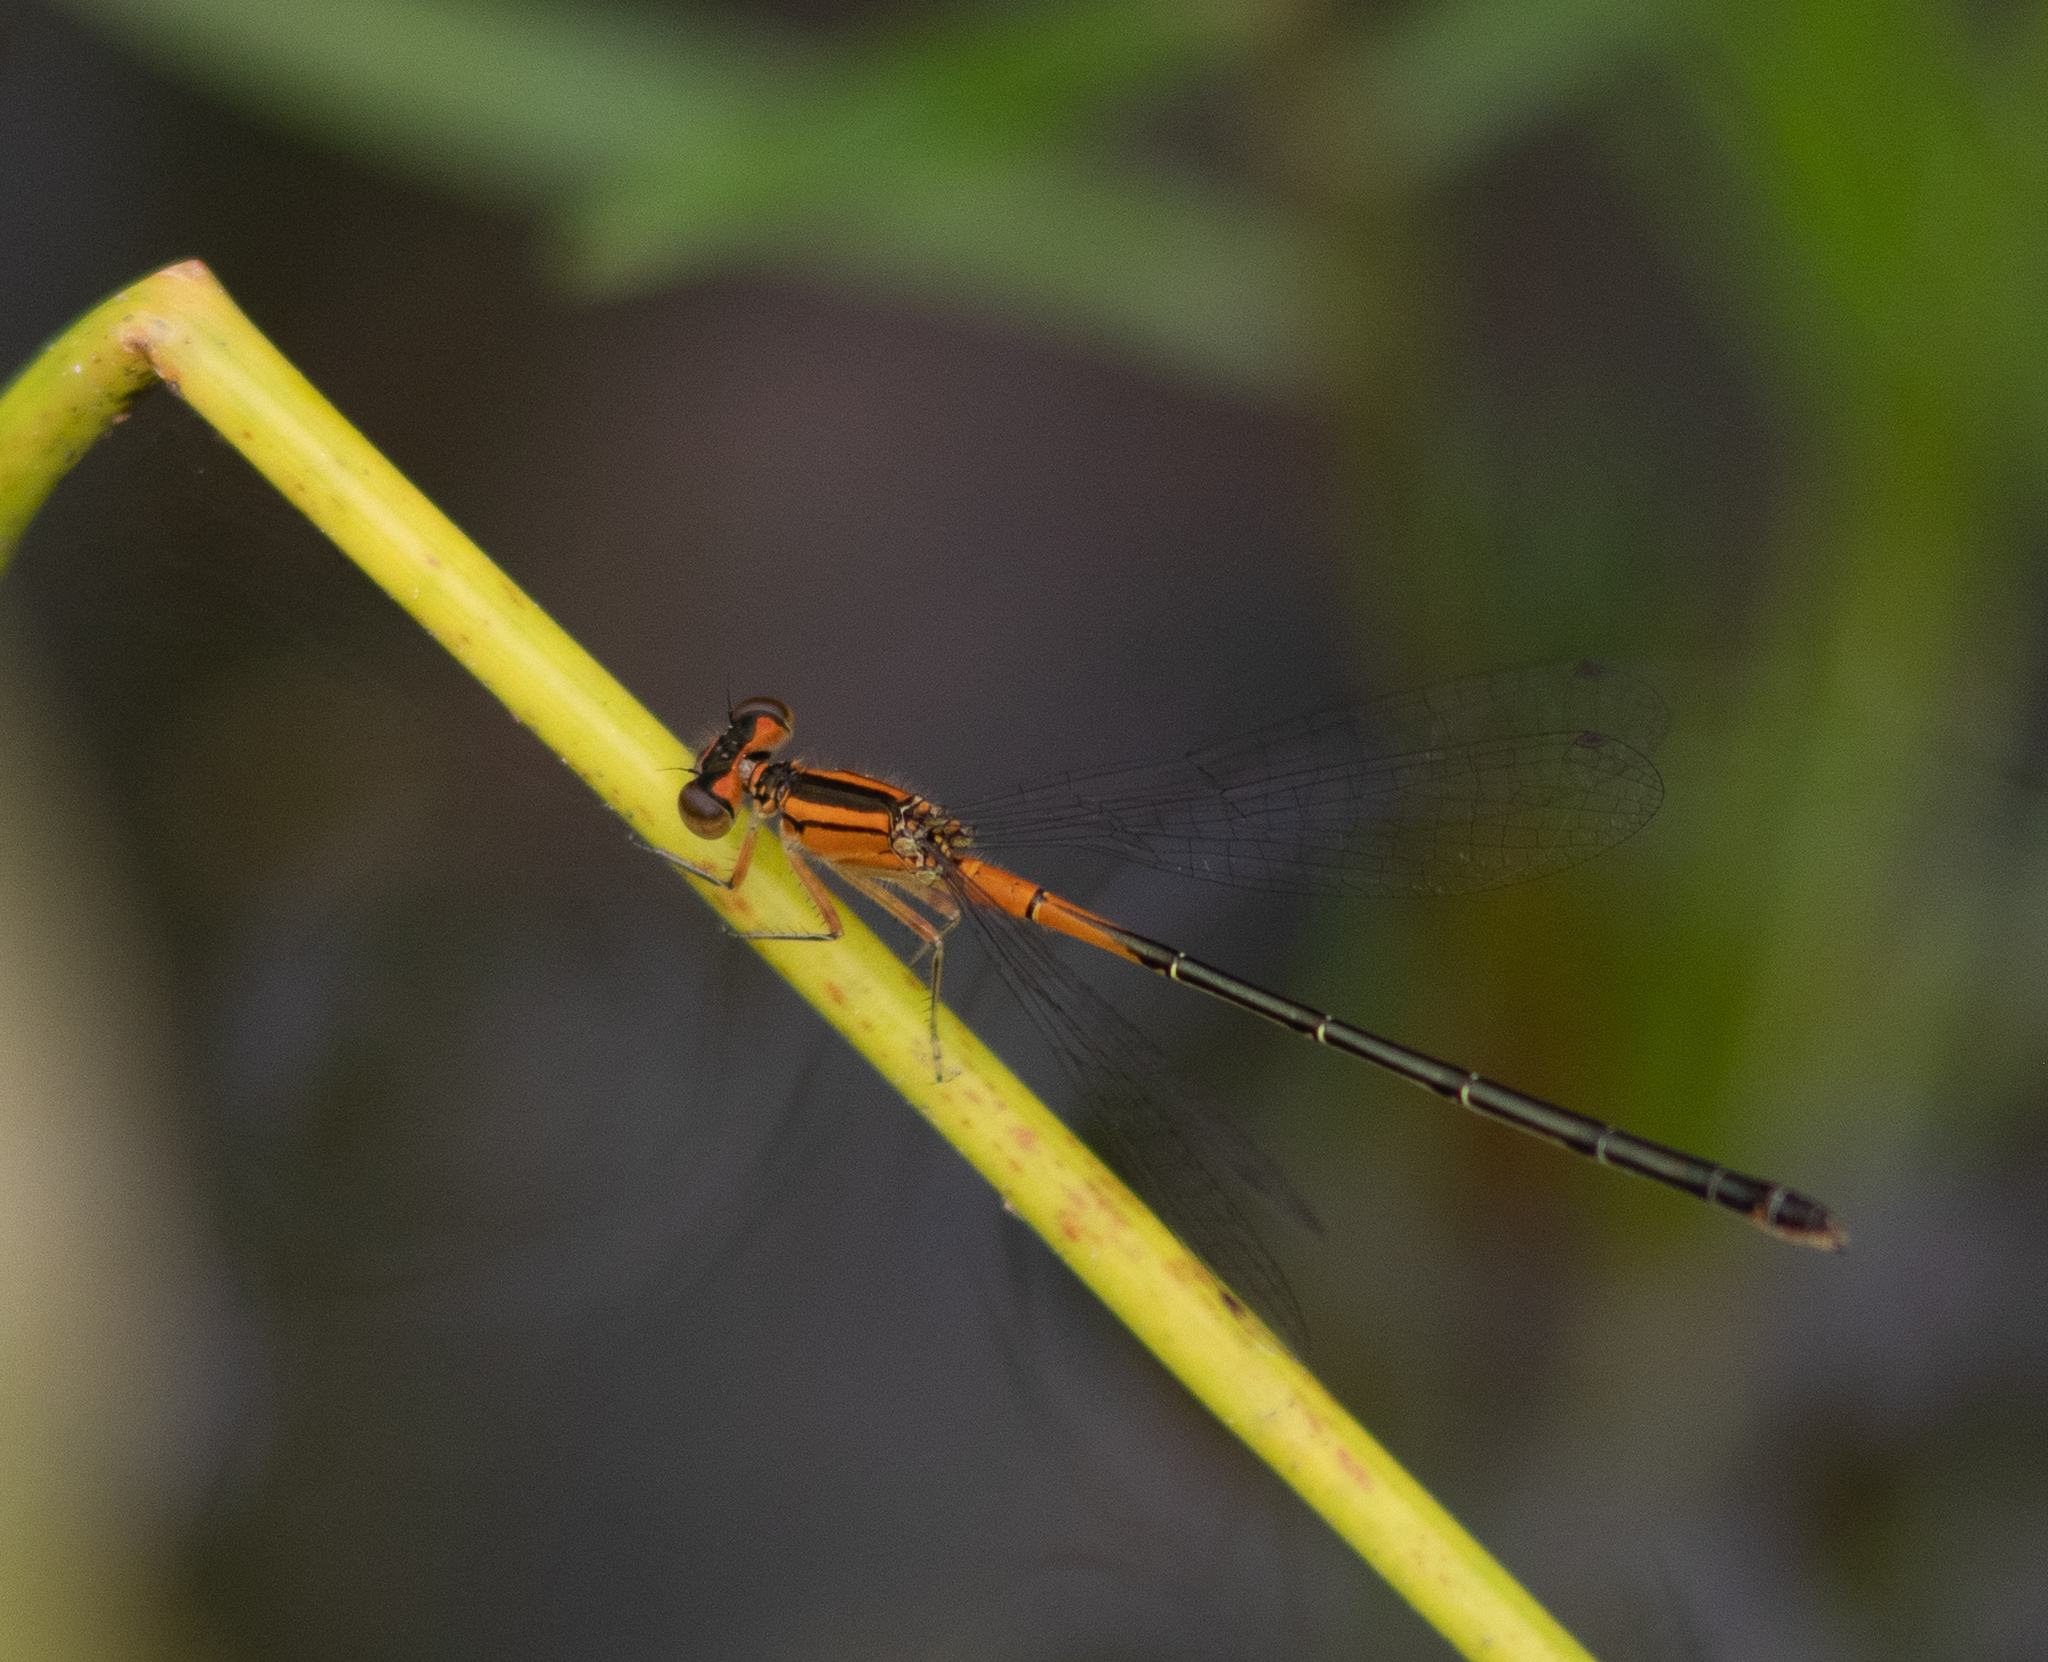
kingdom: Animalia
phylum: Arthropoda
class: Insecta
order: Odonata
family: Coenagrionidae
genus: Ischnura
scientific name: Ischnura verticalis
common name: Eastern forktail
